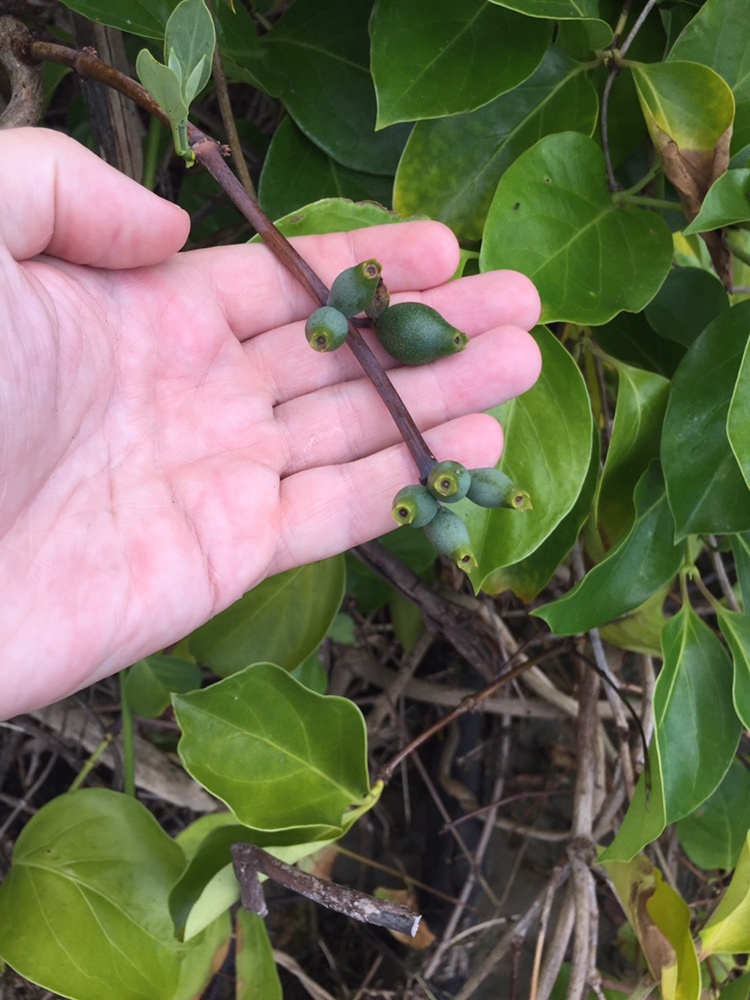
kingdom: Plantae
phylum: Tracheophyta
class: Magnoliopsida
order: Dipsacales
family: Caprifoliaceae
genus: Lonicera
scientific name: Lonicera hildebrandtiana
